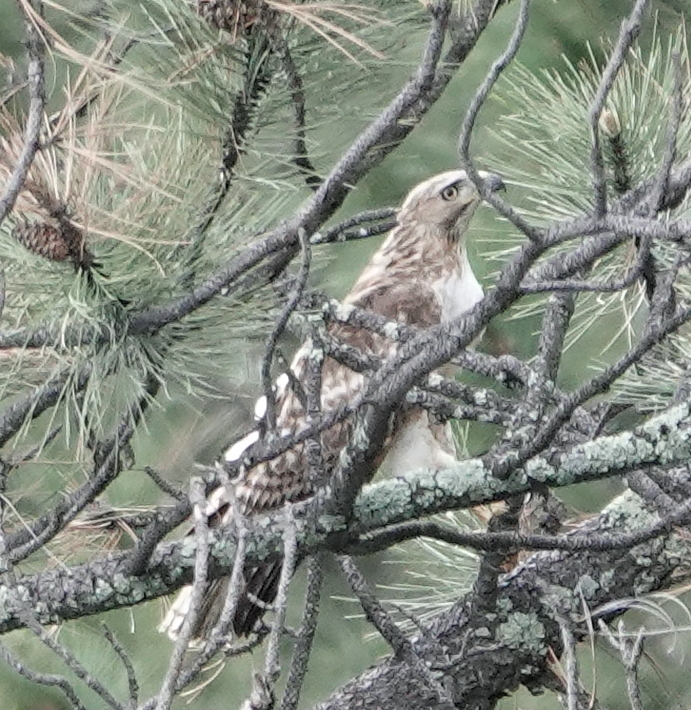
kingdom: Animalia
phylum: Chordata
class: Aves
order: Accipitriformes
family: Accipitridae
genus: Buteo
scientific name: Buteo jamaicensis
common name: Red-tailed hawk
